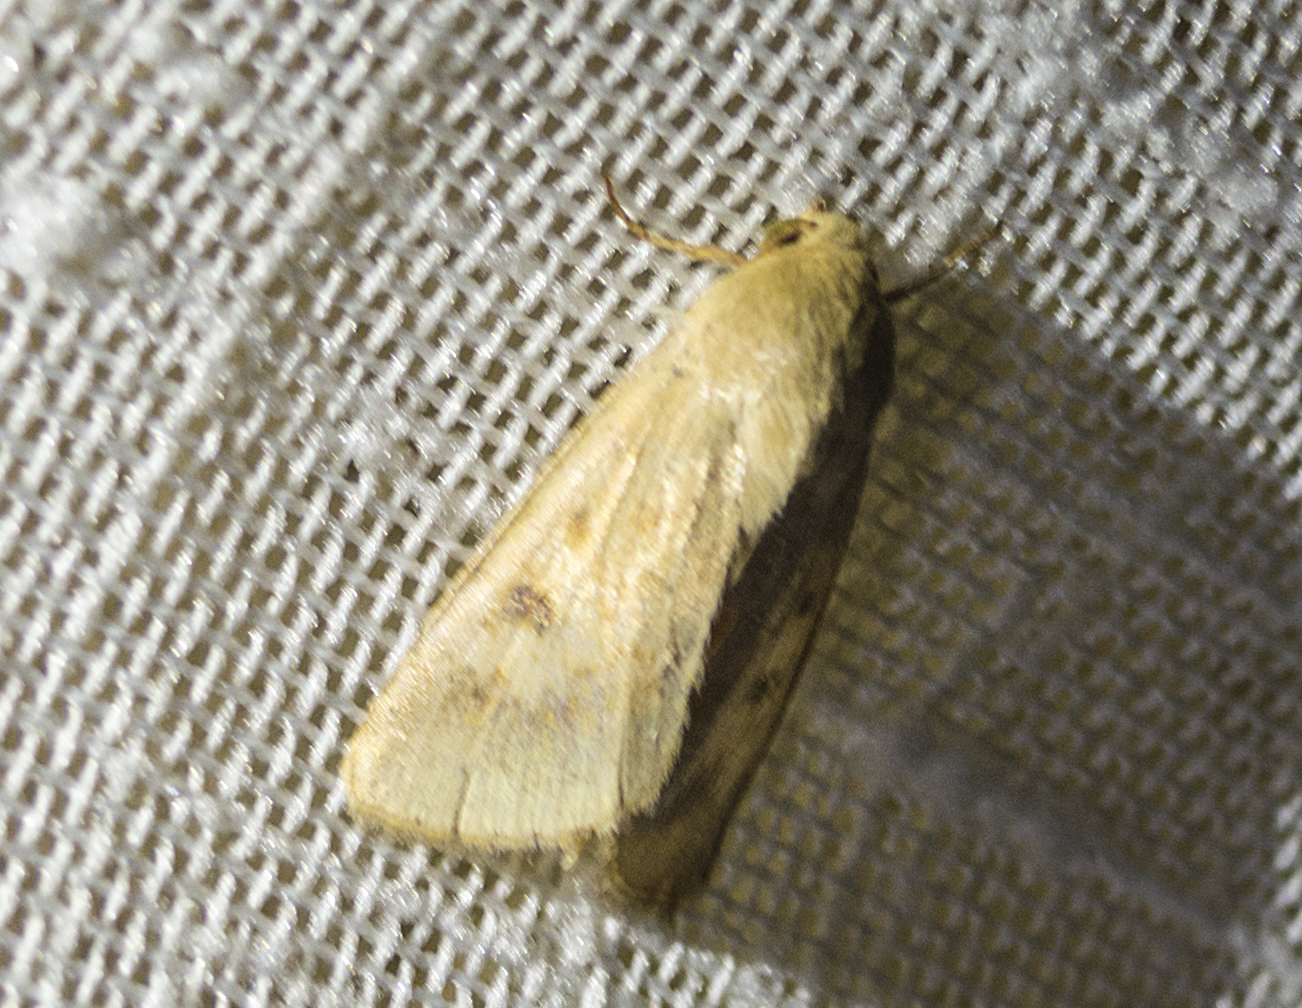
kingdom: Animalia
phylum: Arthropoda
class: Insecta
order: Lepidoptera
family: Noctuidae
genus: Helicoverpa
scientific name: Helicoverpa armigera
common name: Cotton bollworm
